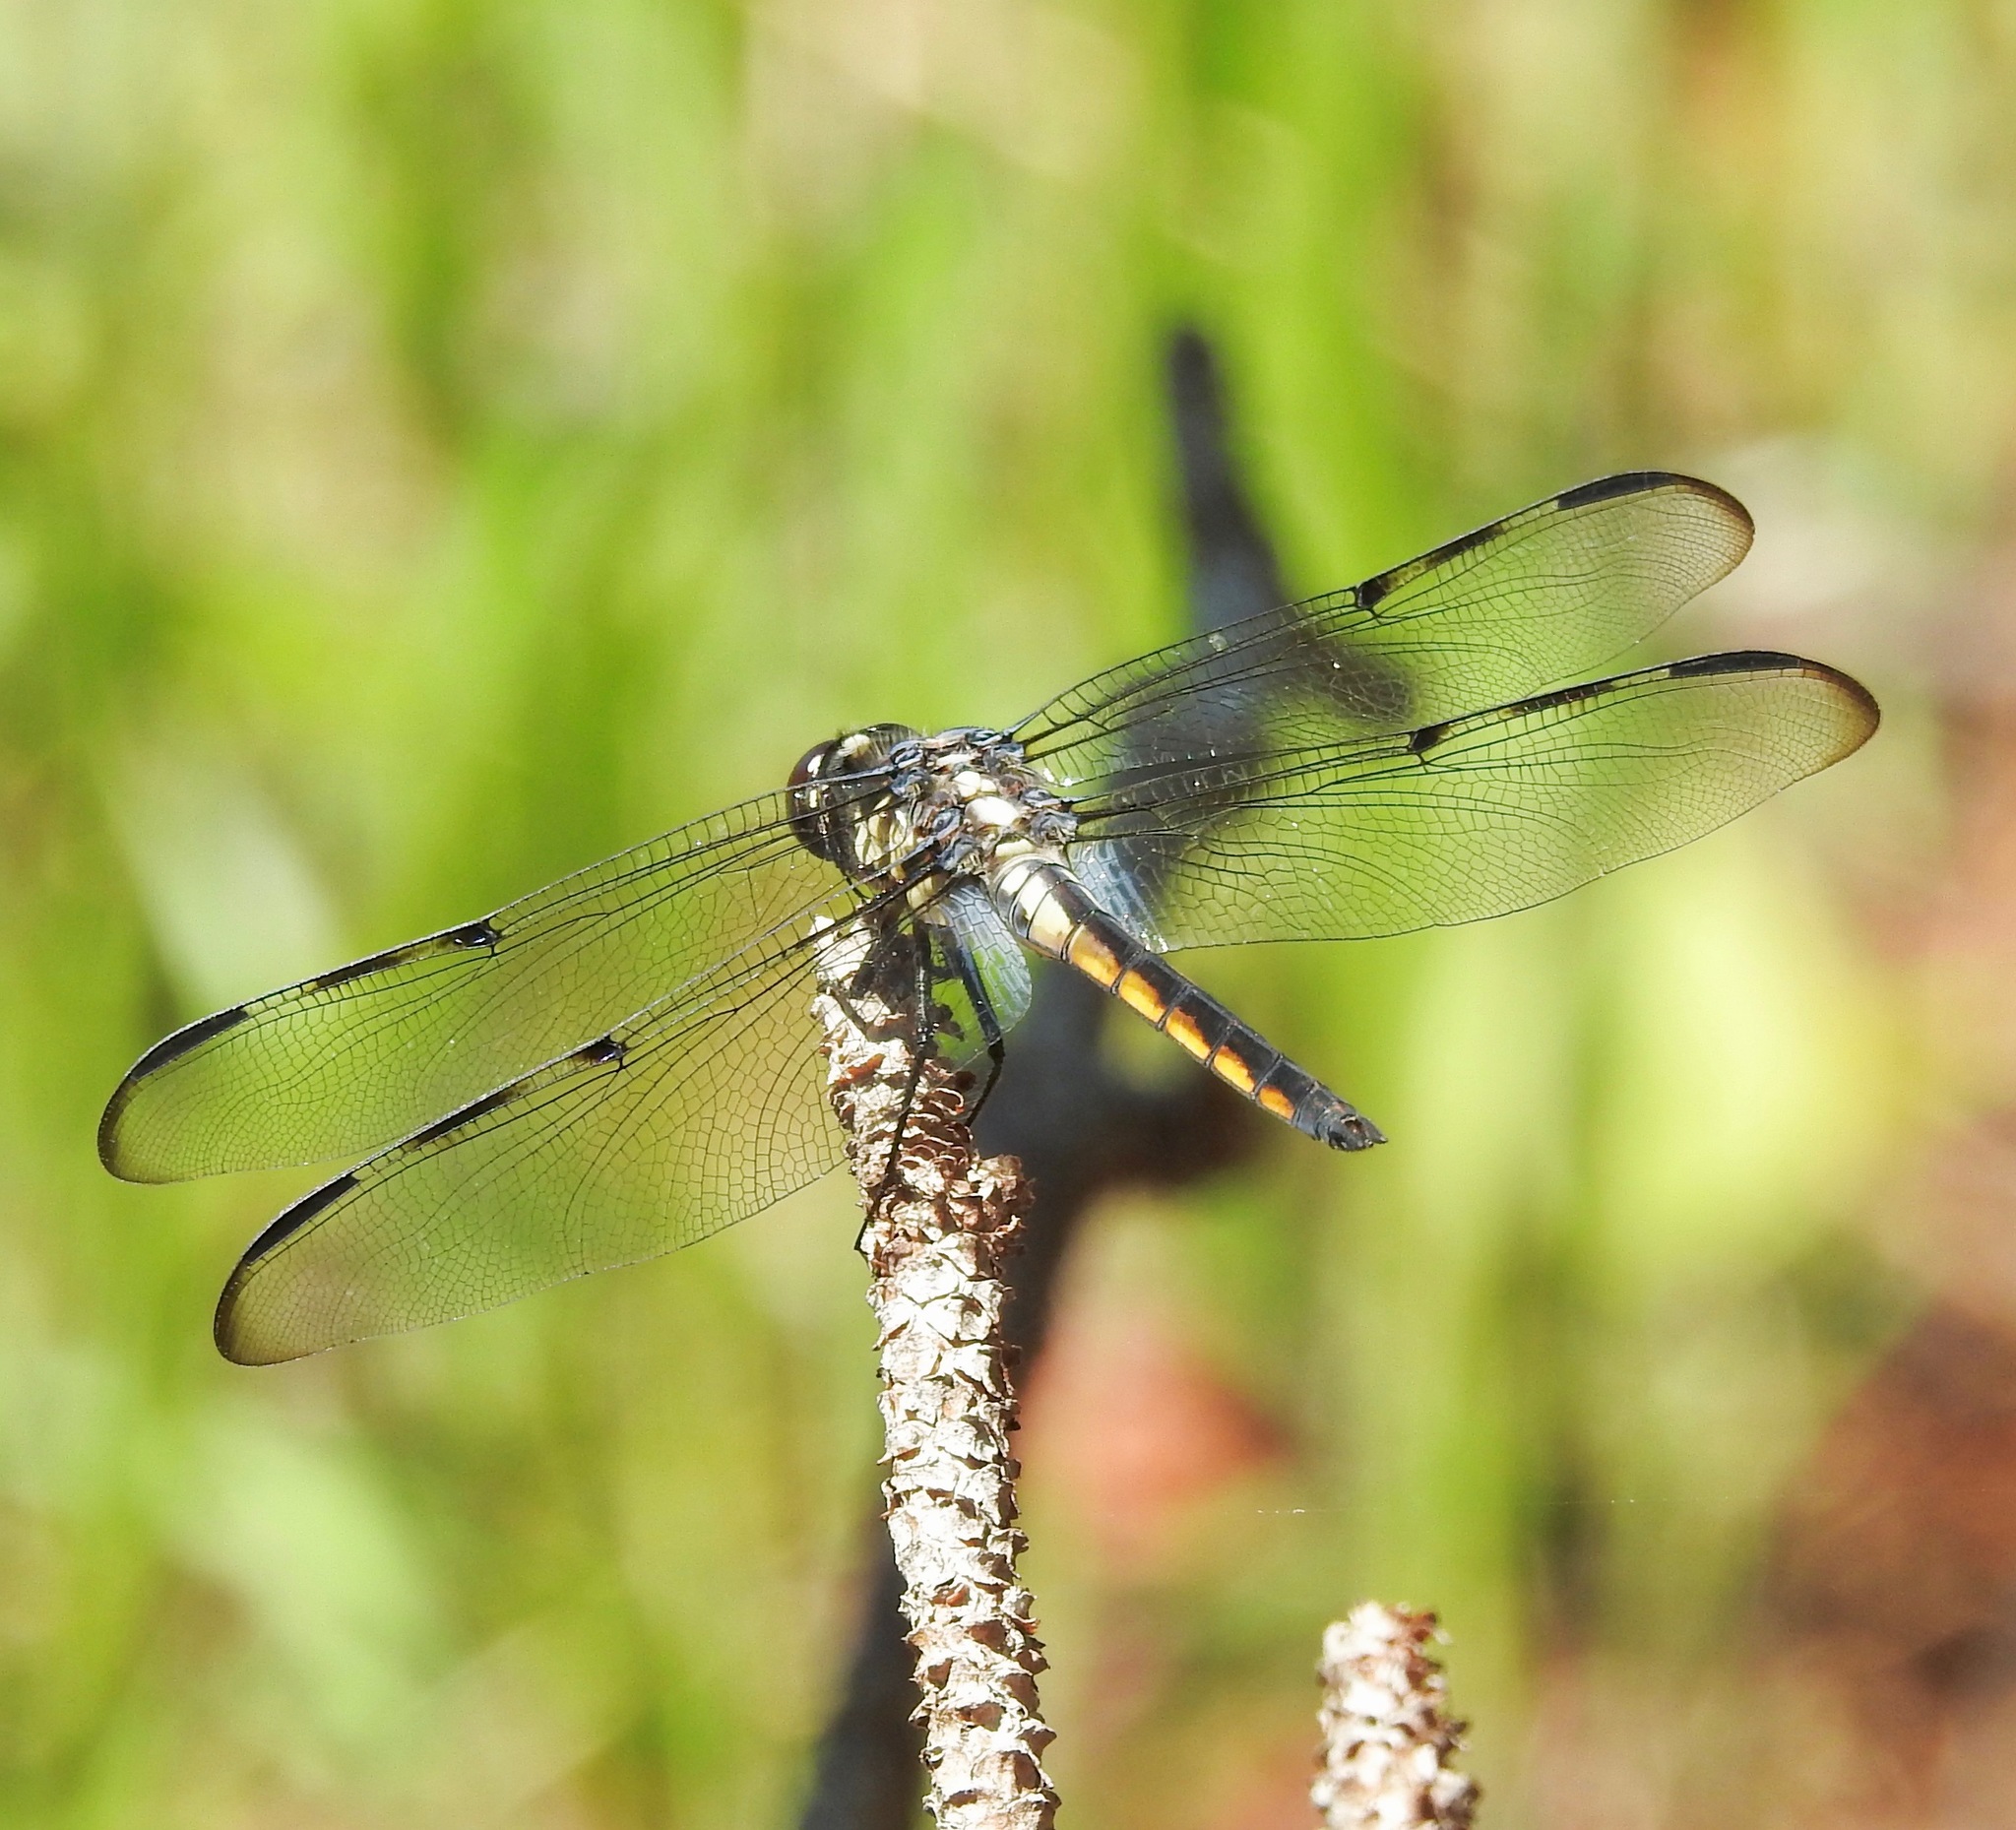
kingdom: Animalia
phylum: Arthropoda
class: Insecta
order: Odonata
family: Libellulidae
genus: Libellula
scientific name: Libellula axilena
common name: Bar-winged skimmer
